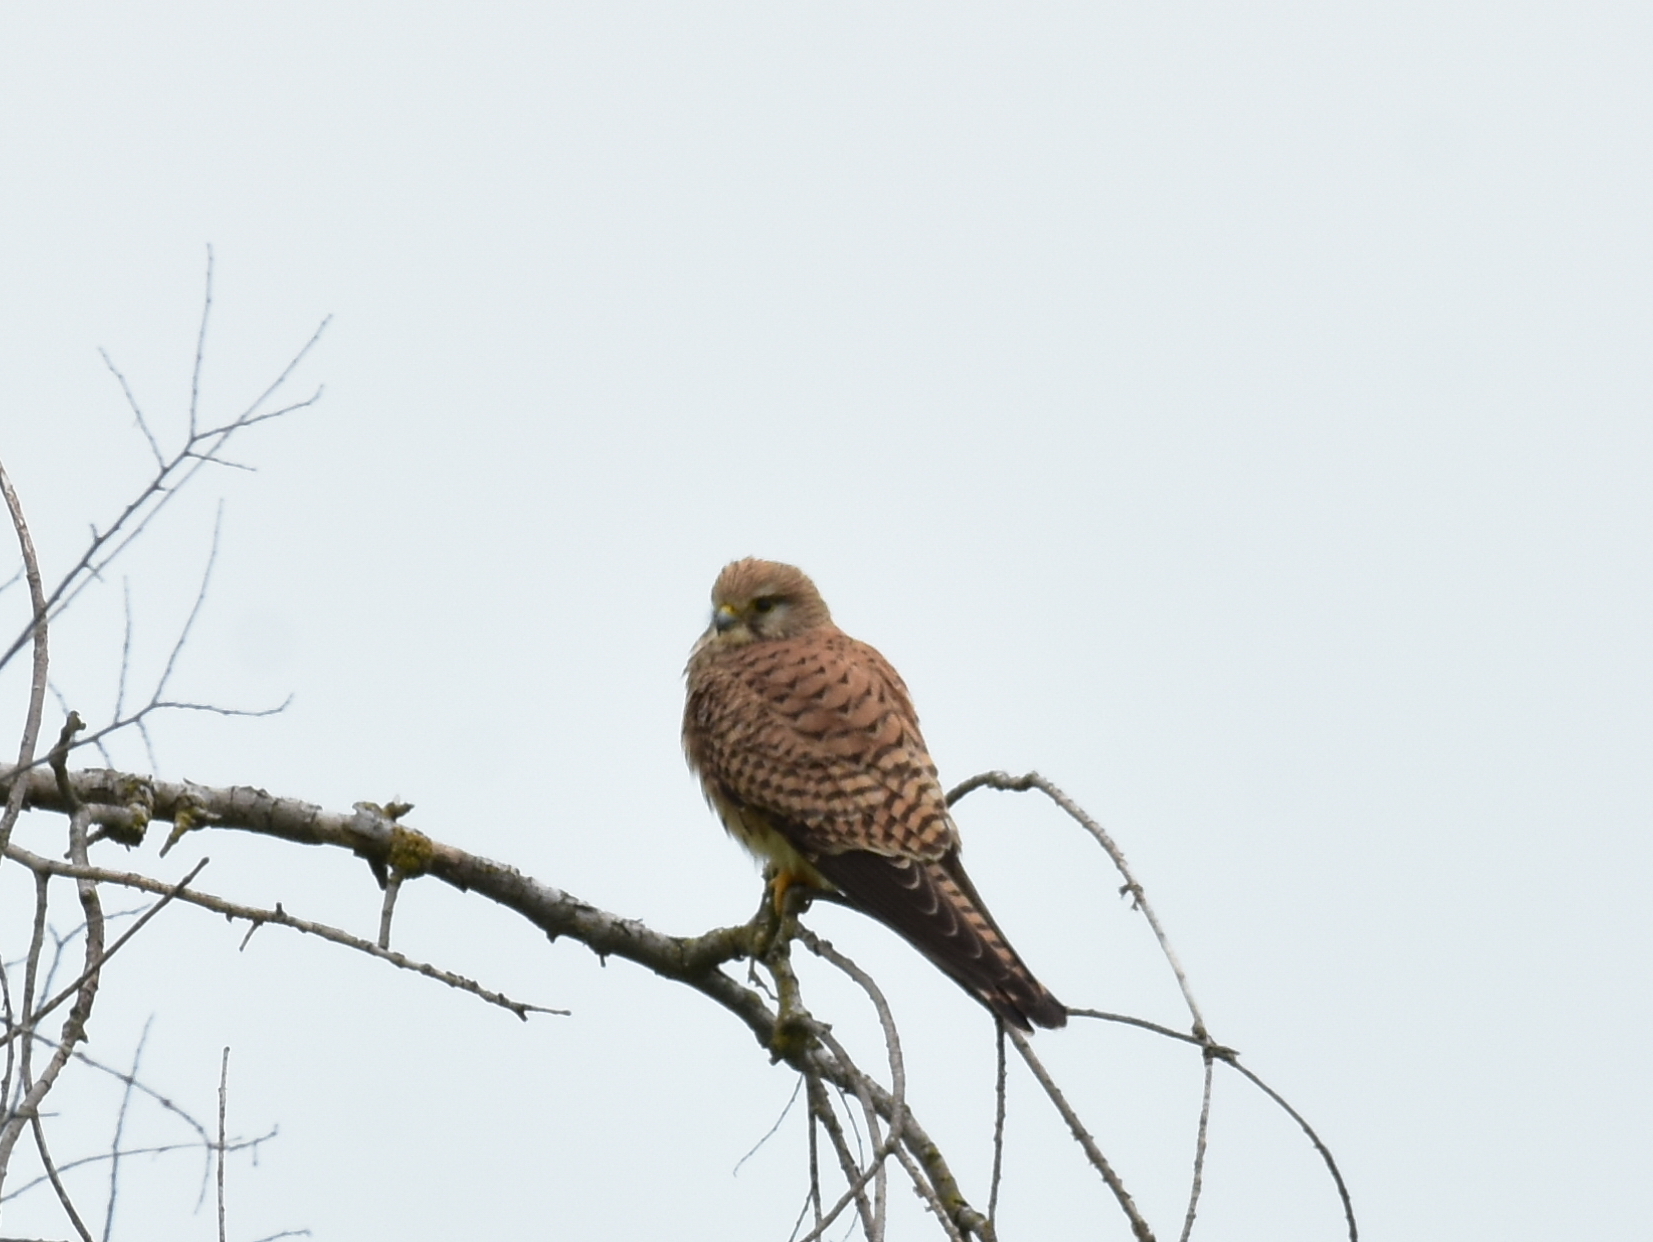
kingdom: Animalia
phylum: Chordata
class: Aves
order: Falconiformes
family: Falconidae
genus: Falco
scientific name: Falco tinnunculus
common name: Common kestrel
